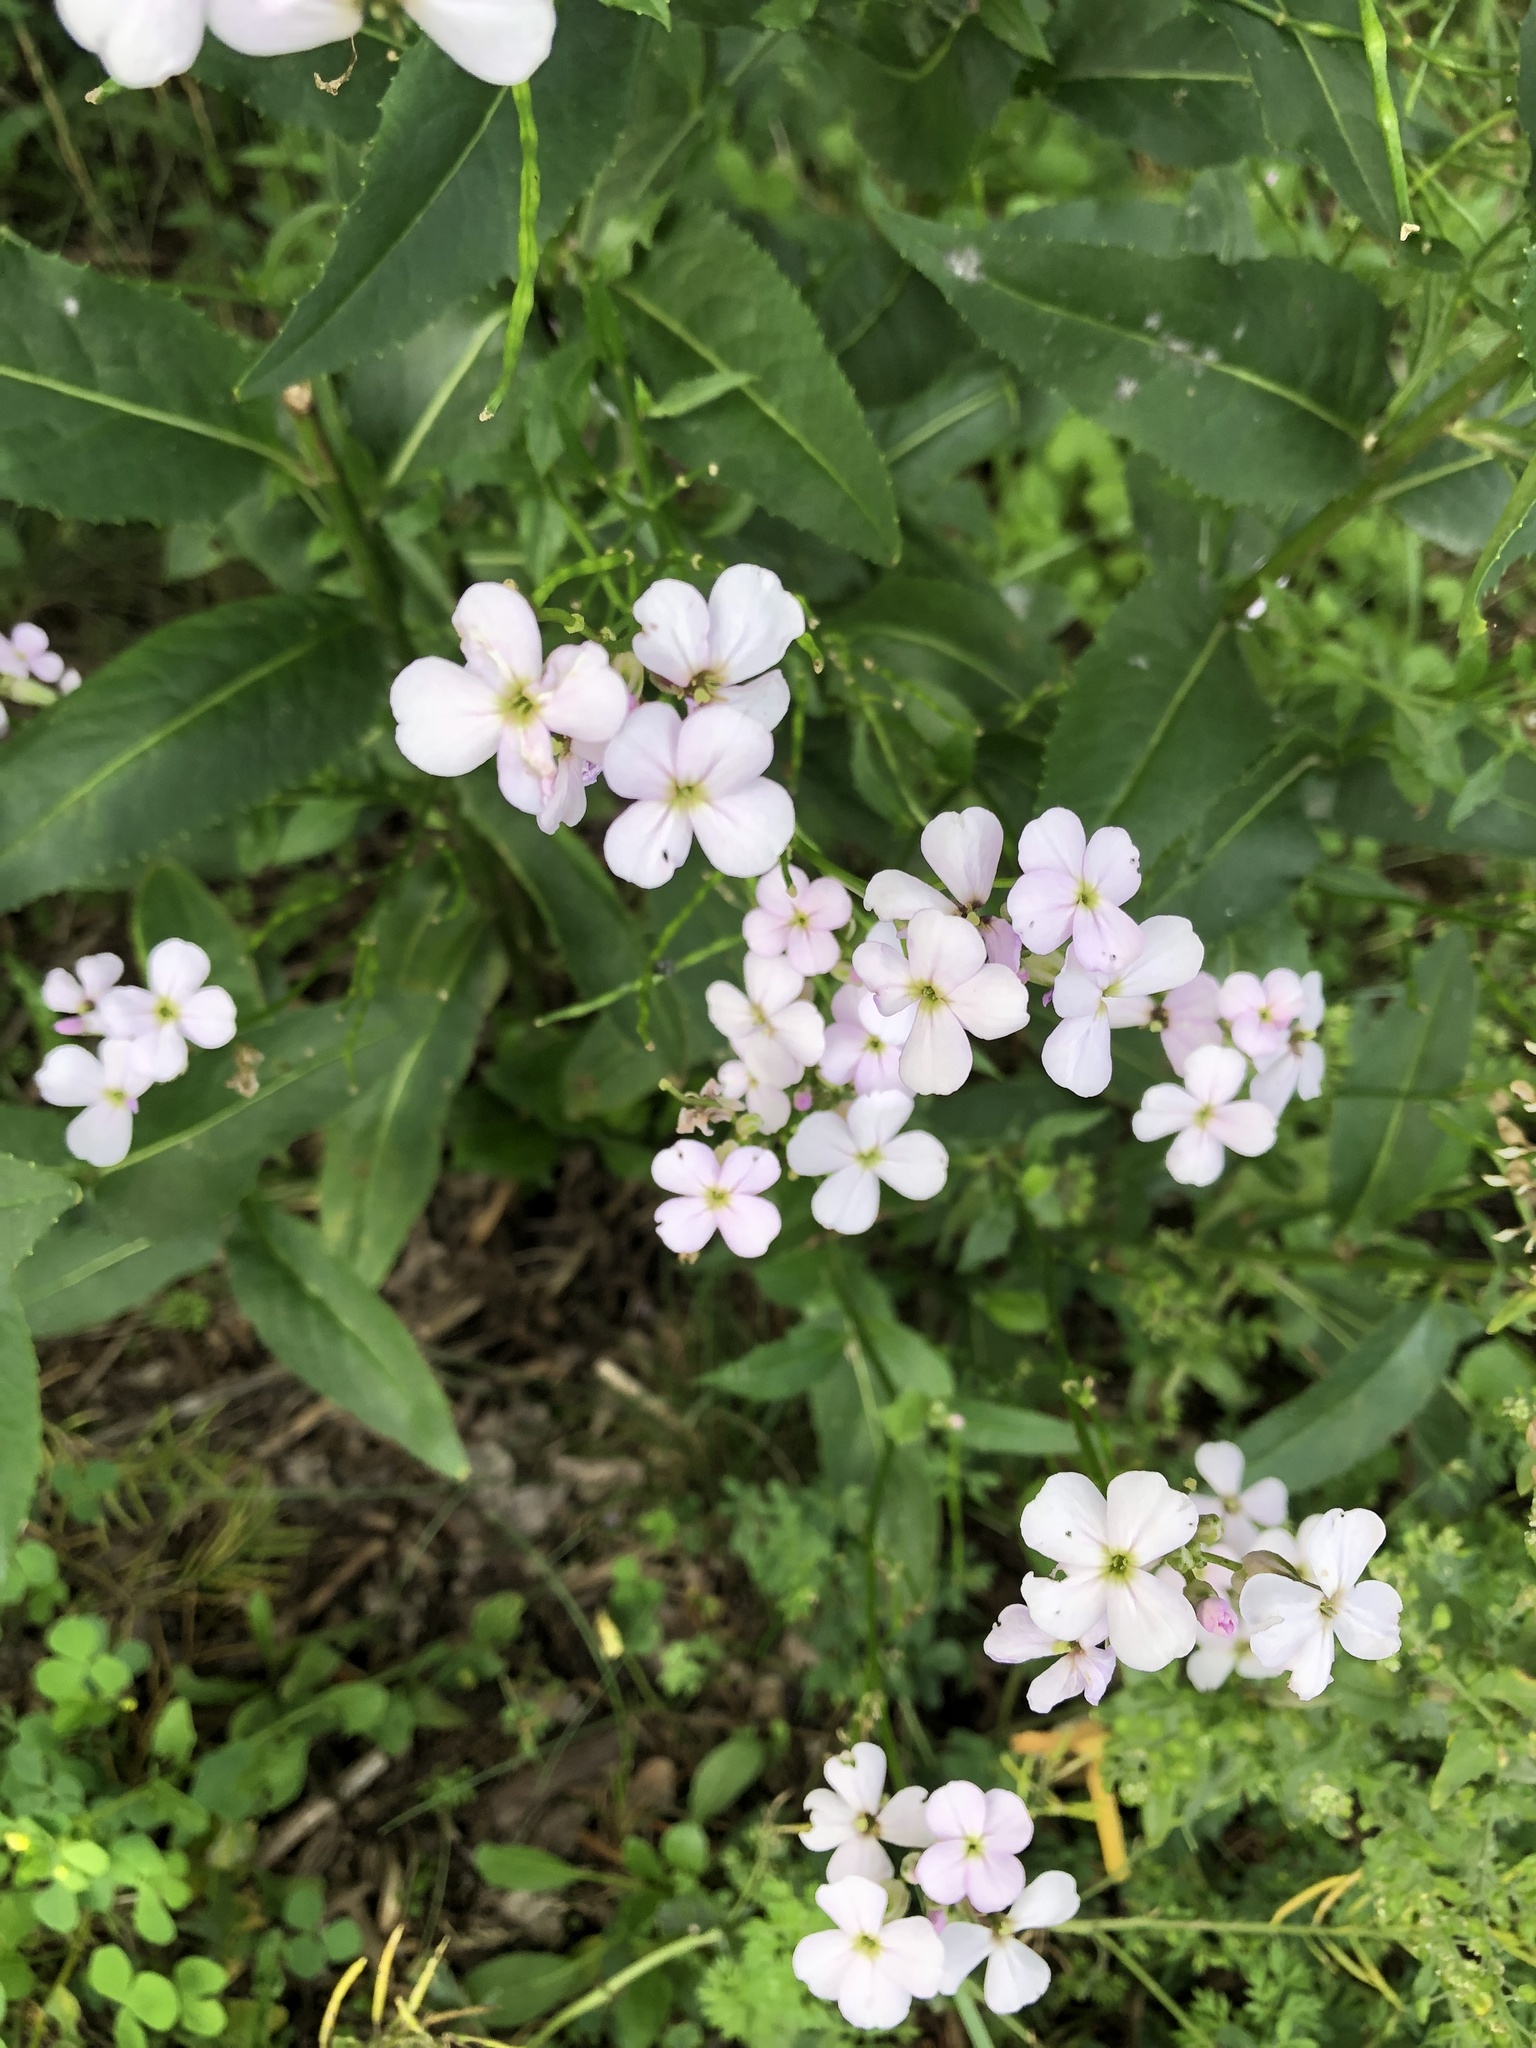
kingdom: Plantae
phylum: Tracheophyta
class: Magnoliopsida
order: Brassicales
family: Brassicaceae
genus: Hesperis
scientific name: Hesperis matronalis
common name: Dame's-violet
